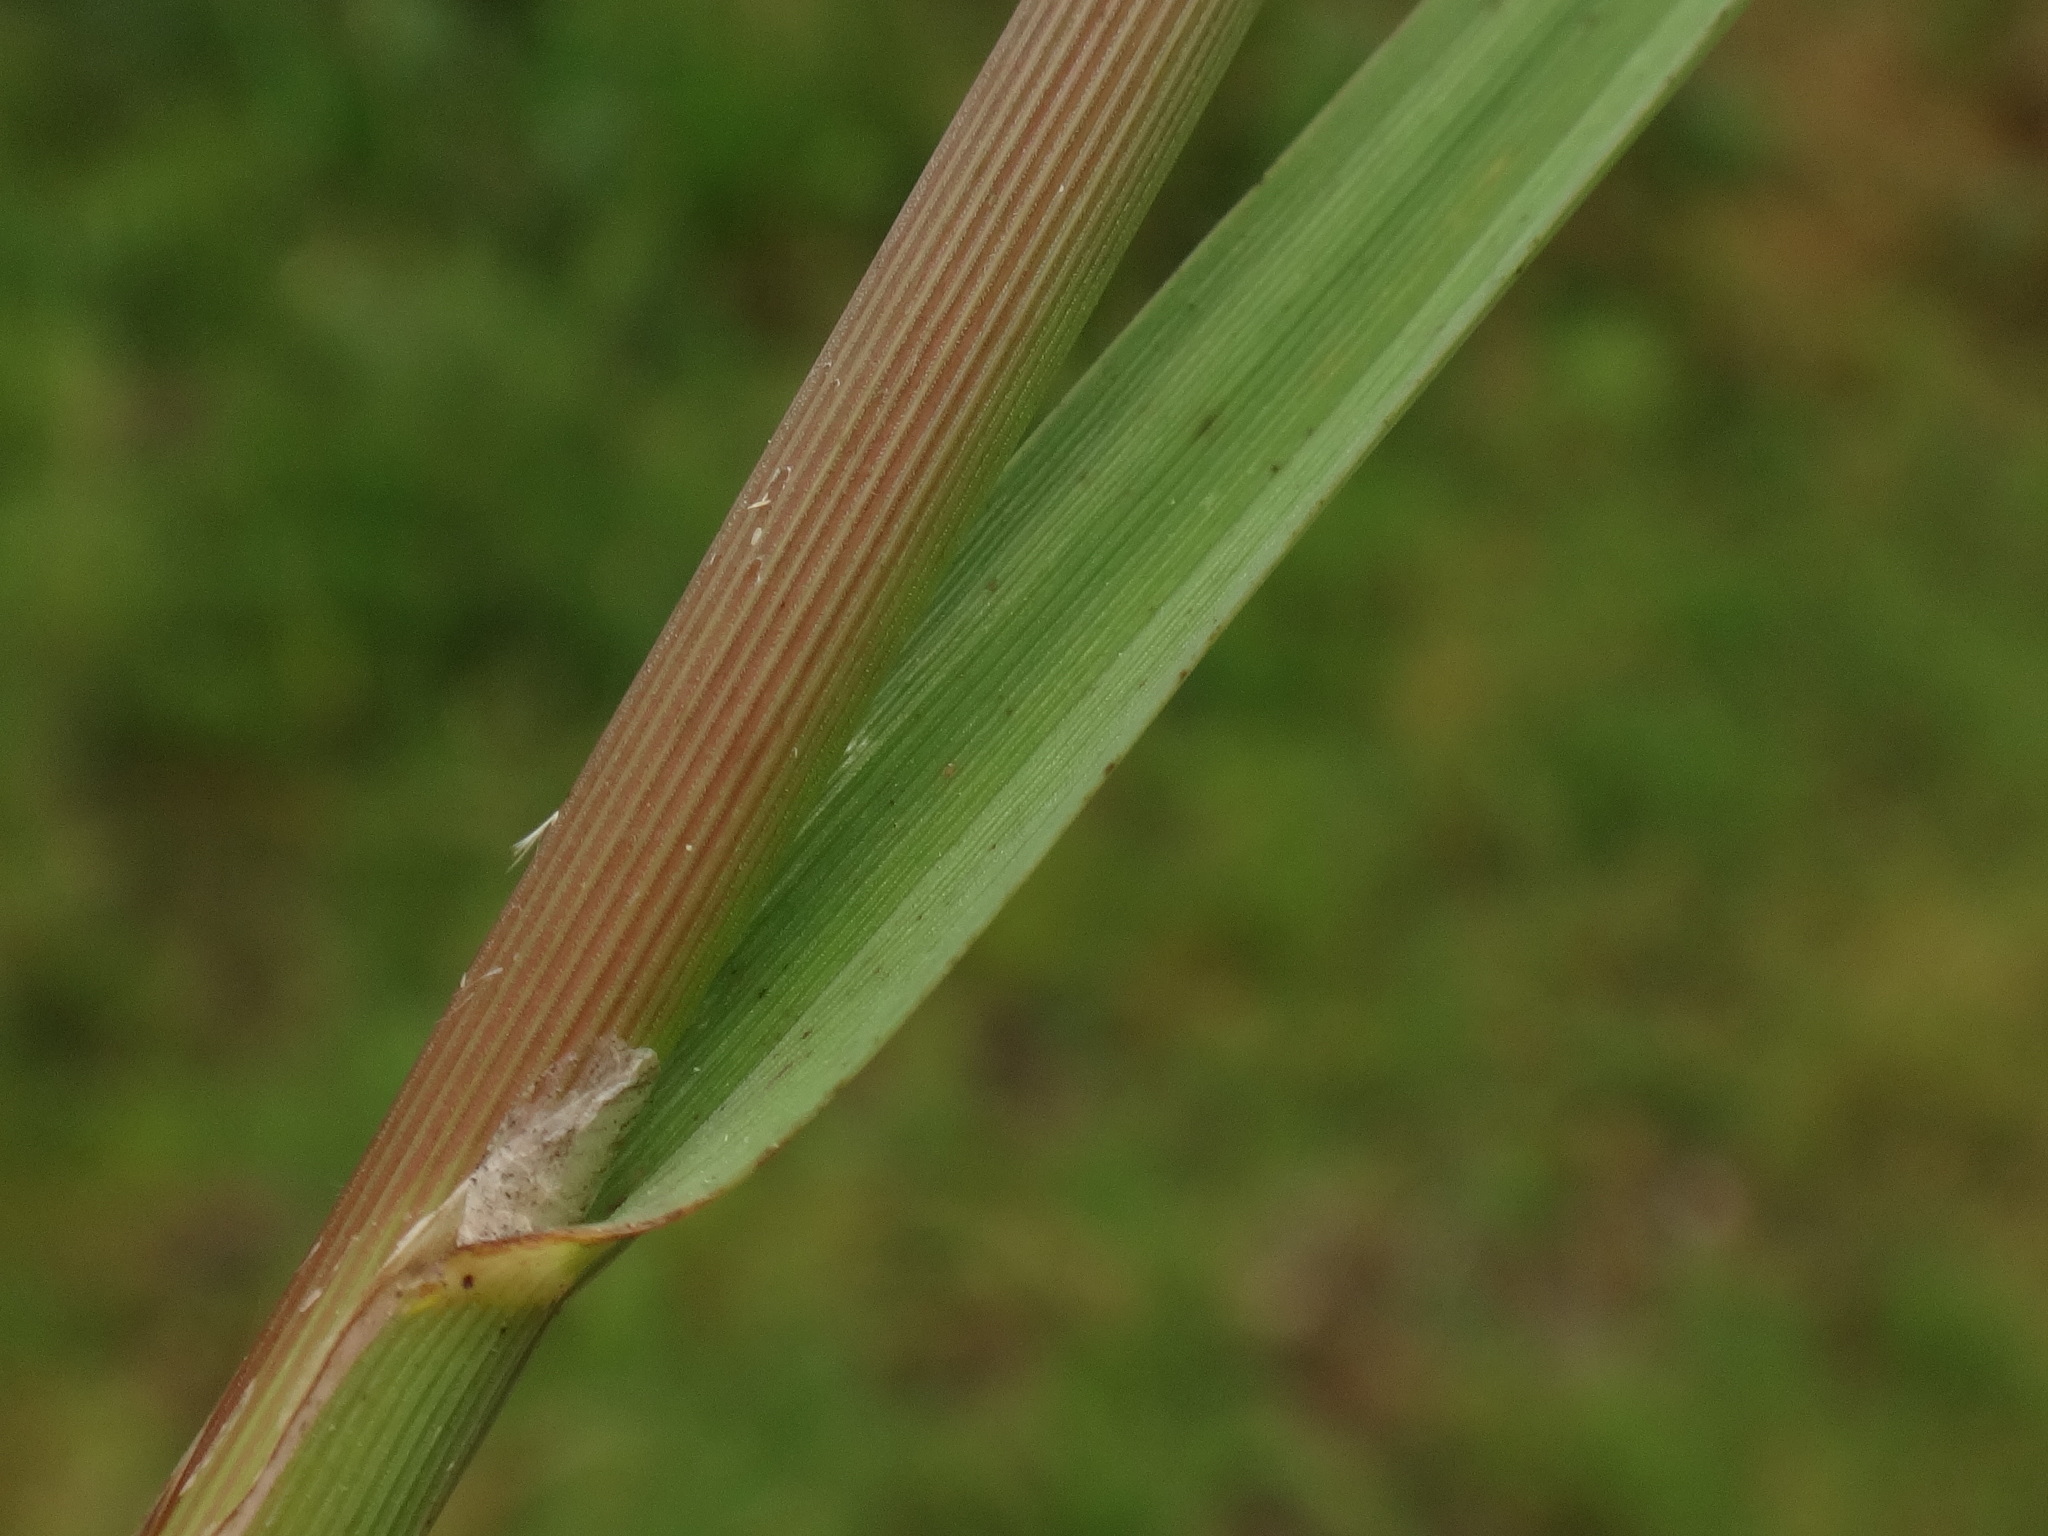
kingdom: Plantae
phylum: Tracheophyta
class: Liliopsida
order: Poales
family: Poaceae
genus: Glyceria
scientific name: Glyceria notata
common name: Plicate sweet-grass
